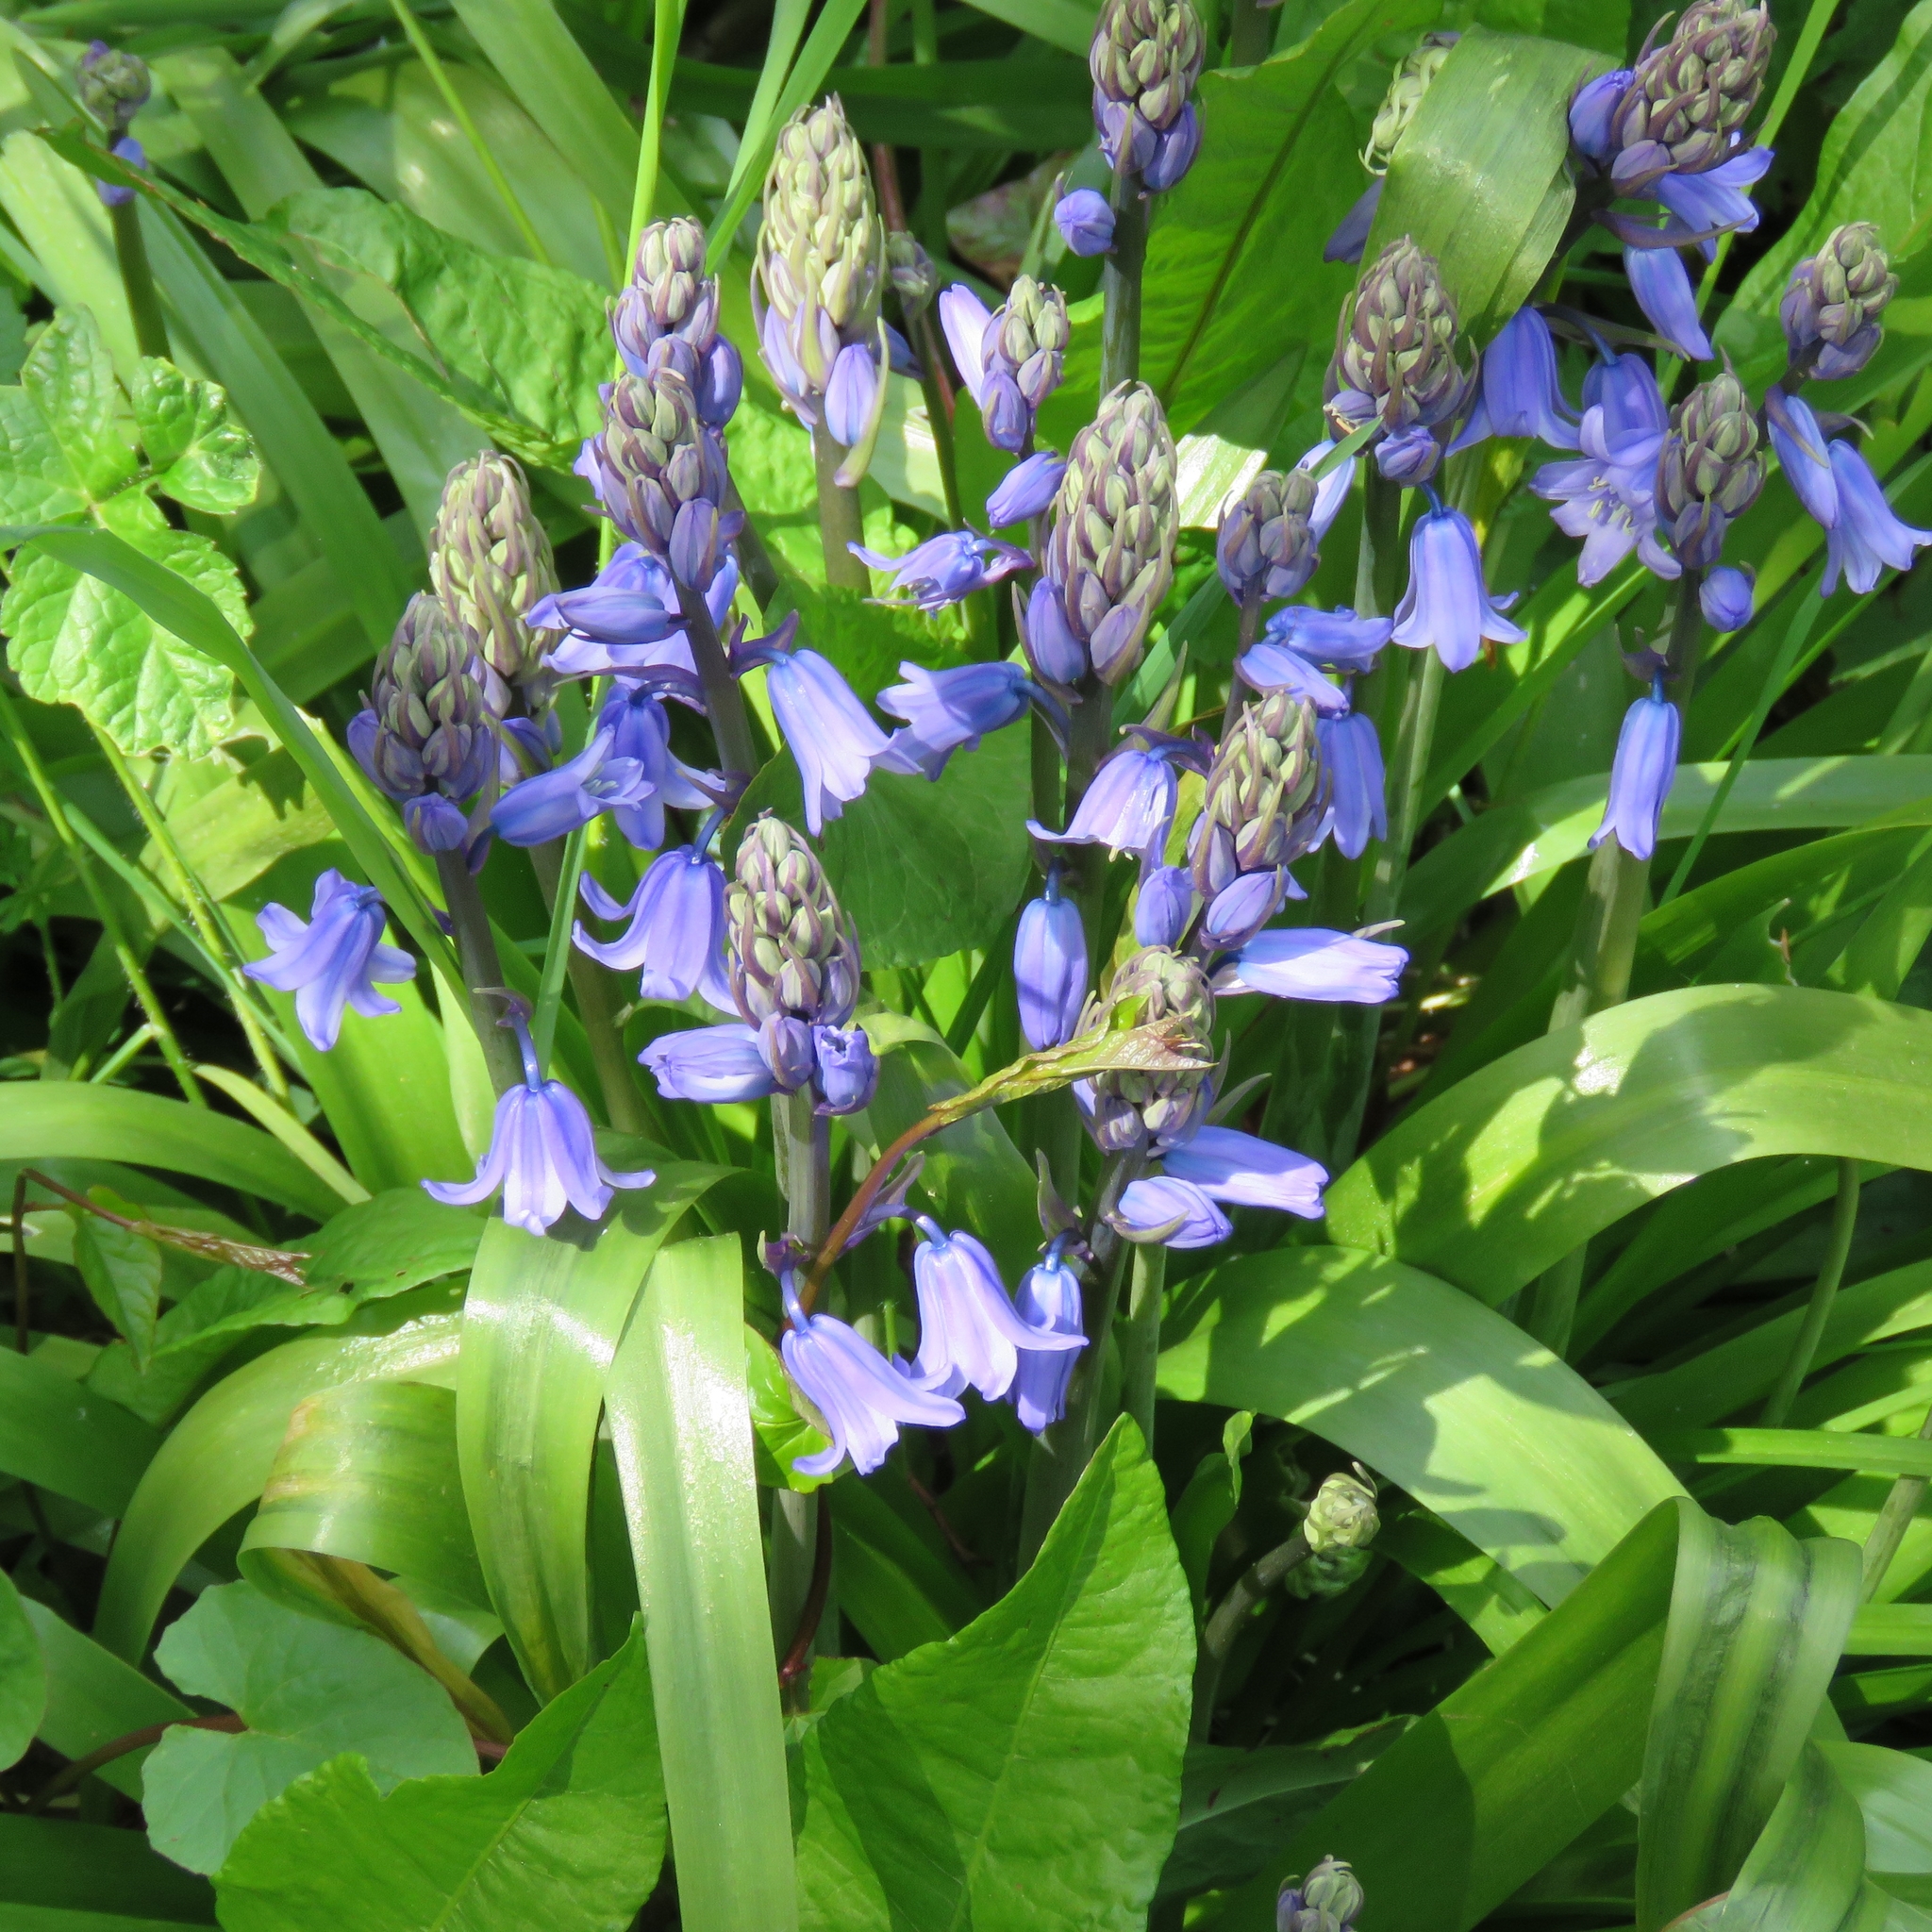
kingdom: Plantae
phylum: Tracheophyta
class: Liliopsida
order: Asparagales
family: Asparagaceae
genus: Hyacinthoides
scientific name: Hyacinthoides massartiana
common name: Hyacinthoides
